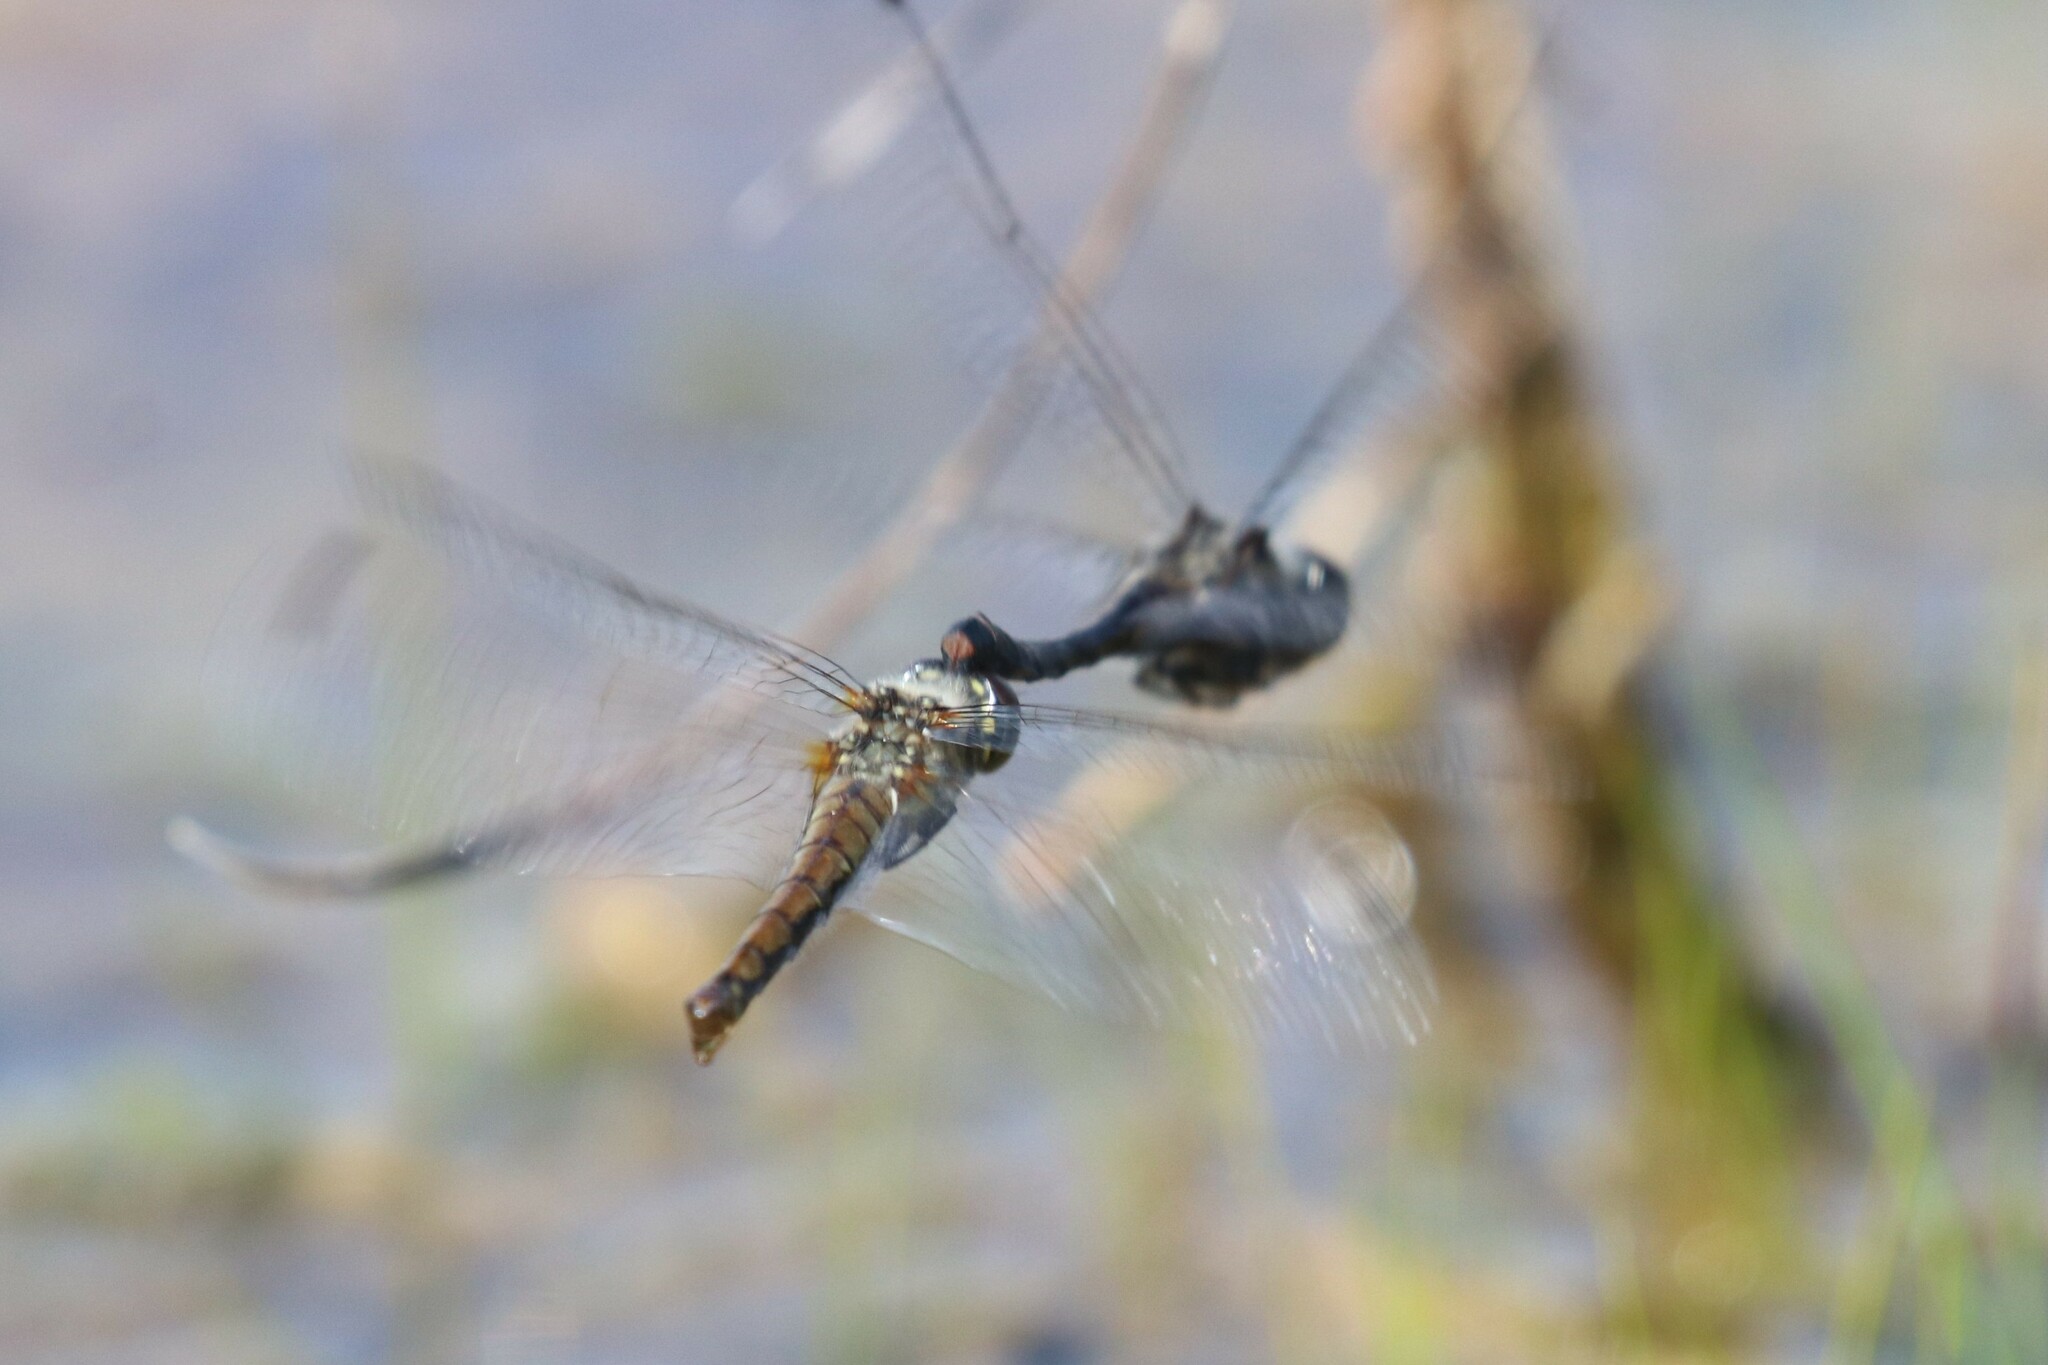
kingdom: Animalia
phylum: Arthropoda
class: Insecta
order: Odonata
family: Libellulidae
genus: Sympetrum
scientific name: Sympetrum danae
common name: Black darter
